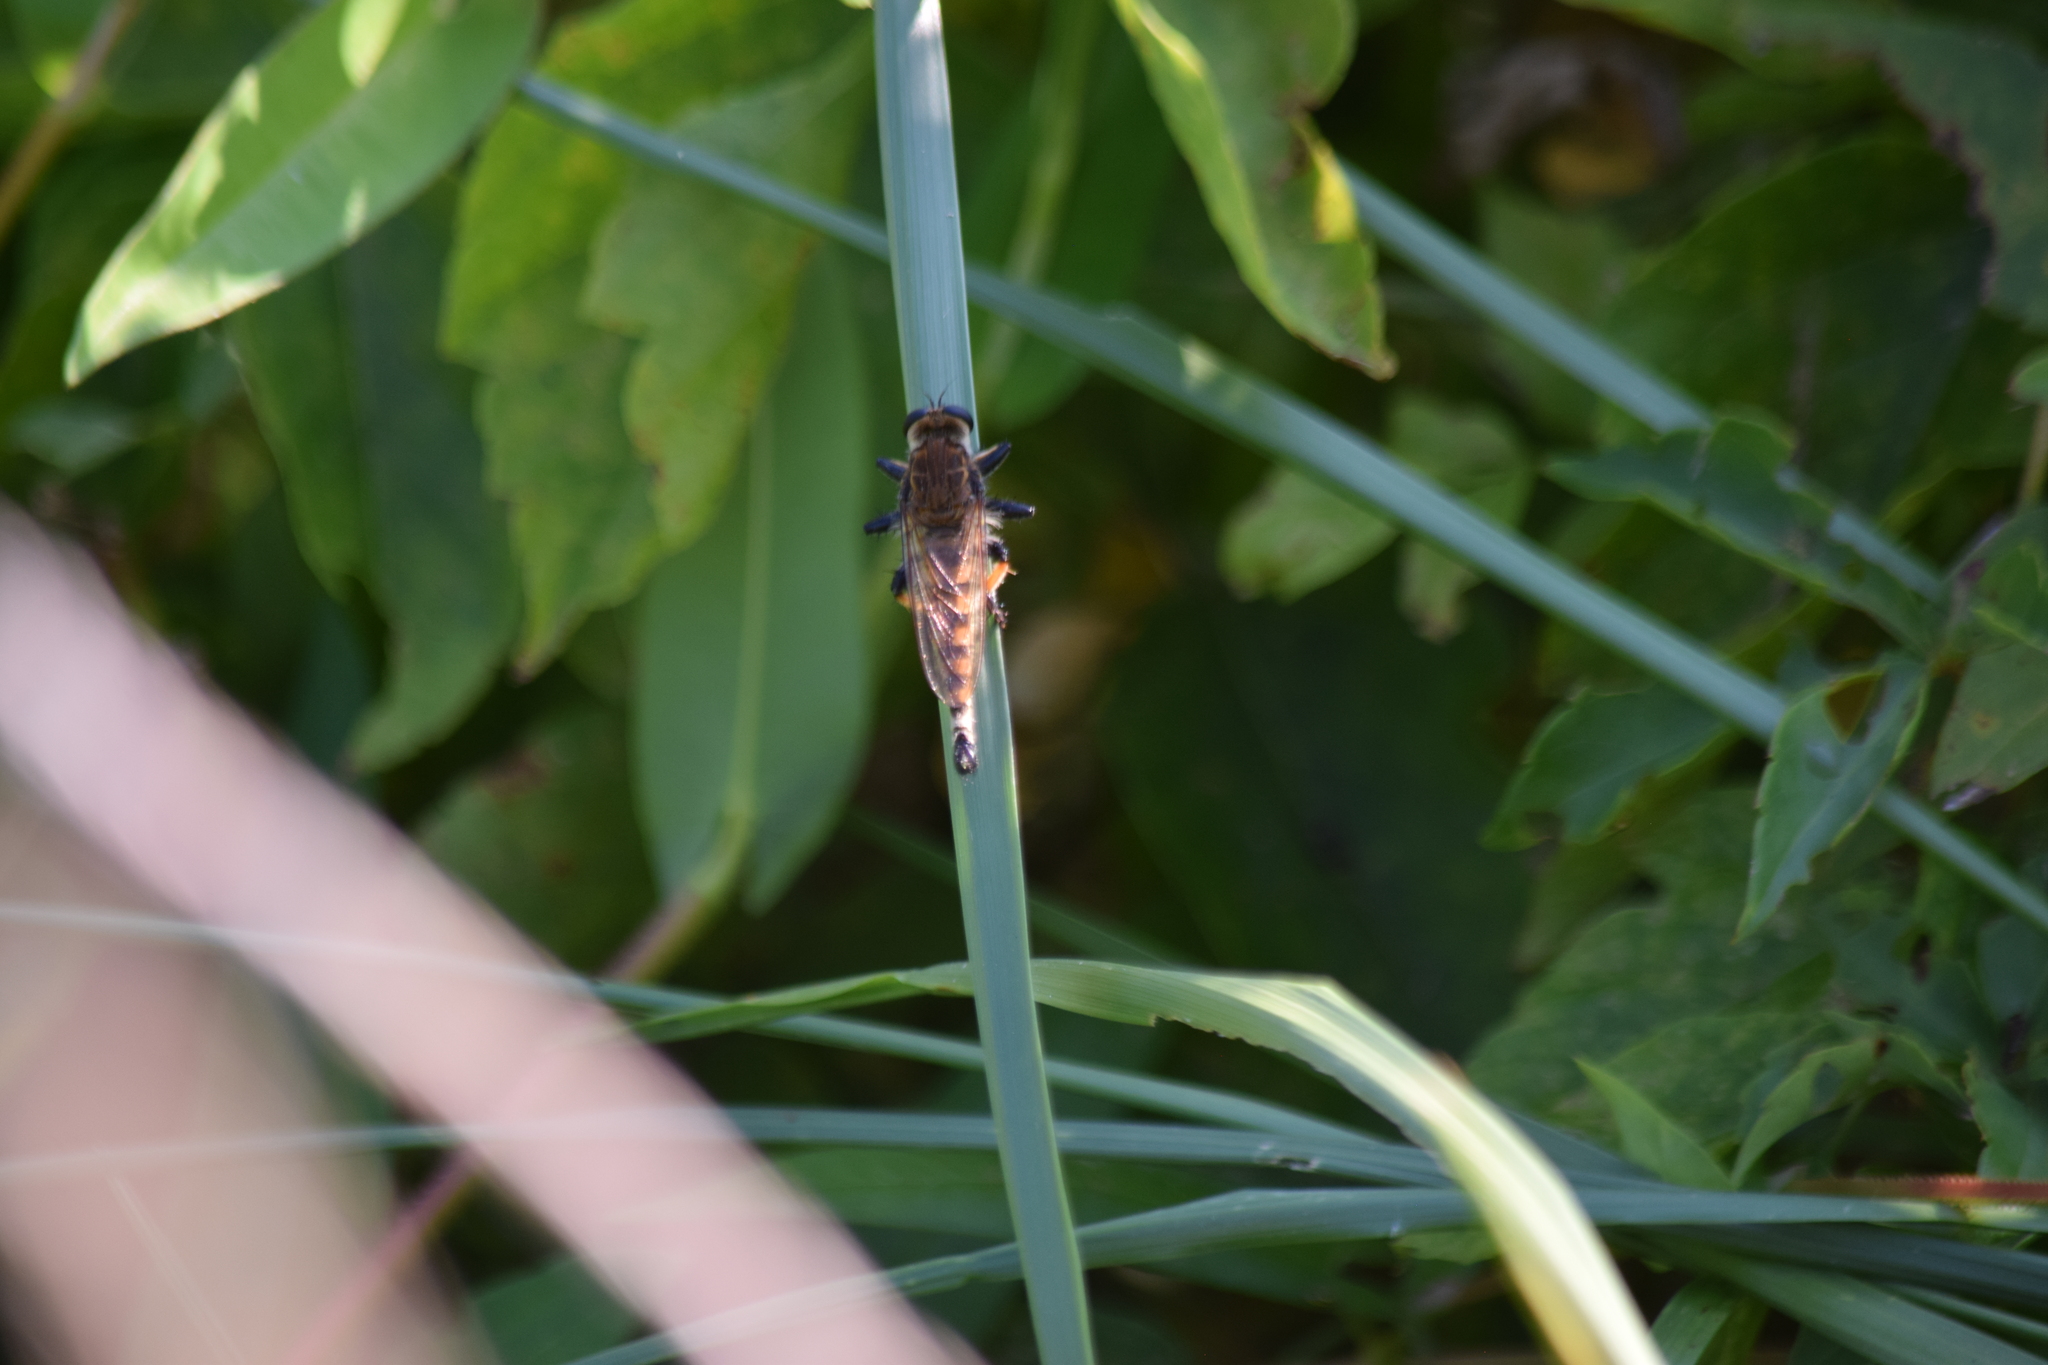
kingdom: Animalia
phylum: Arthropoda
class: Insecta
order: Diptera
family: Asilidae
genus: Promachus
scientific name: Promachus rufipes
